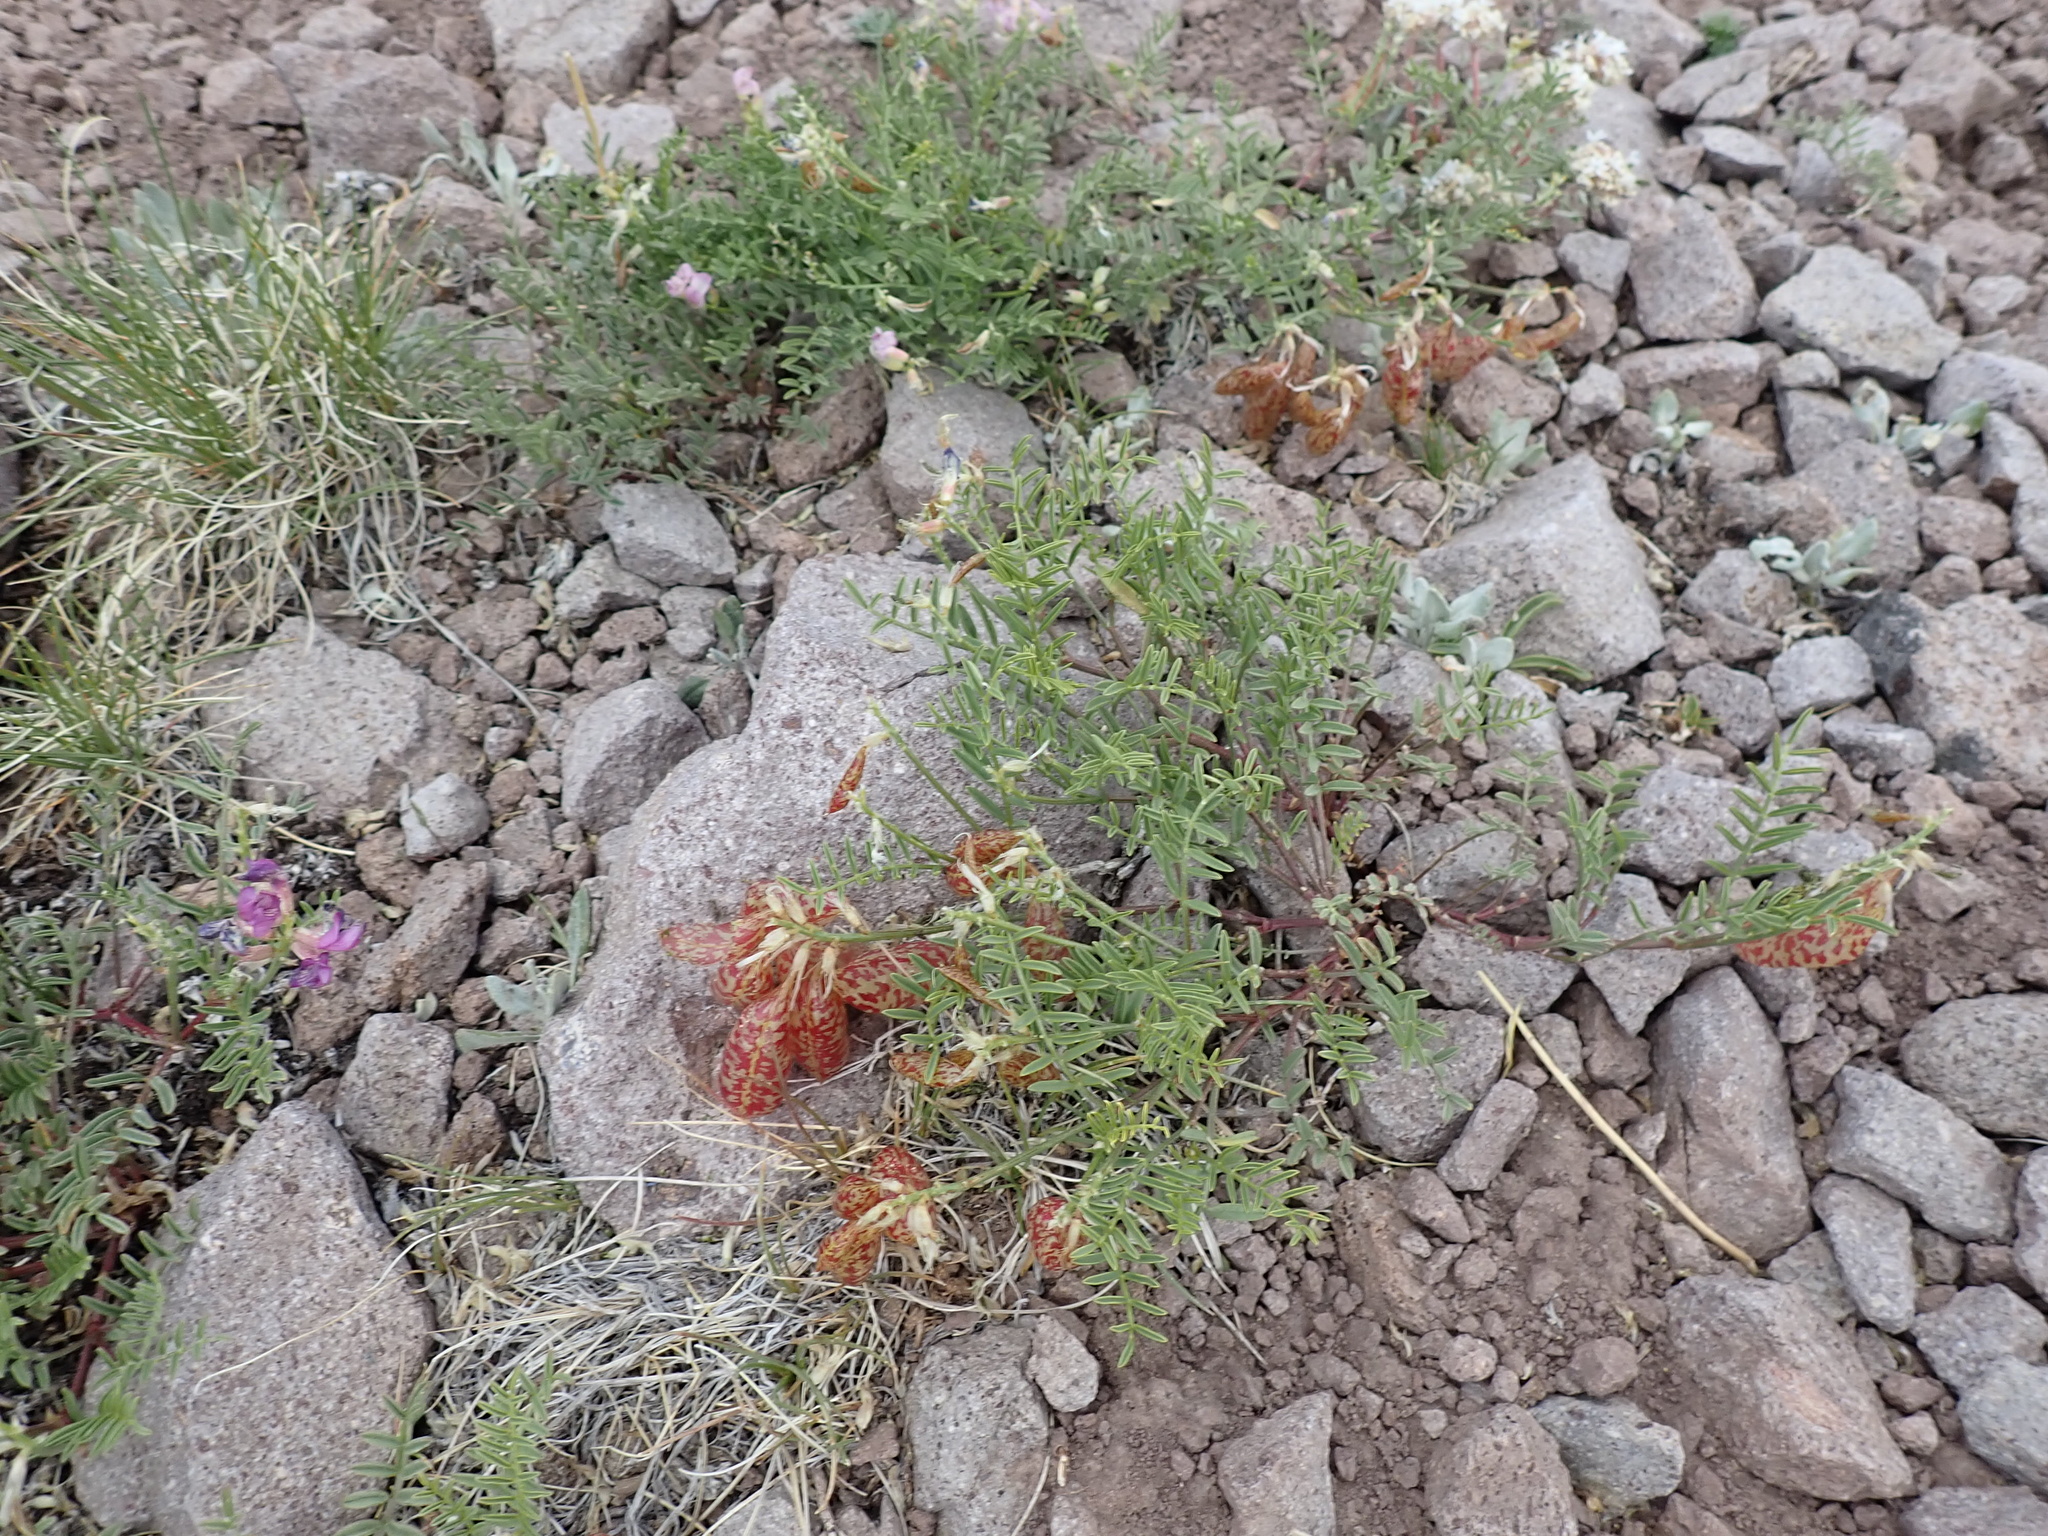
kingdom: Plantae
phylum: Tracheophyta
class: Magnoliopsida
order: Fabales
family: Fabaceae
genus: Astragalus
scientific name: Astragalus whitneyi
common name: Balloonpod milkvetch
